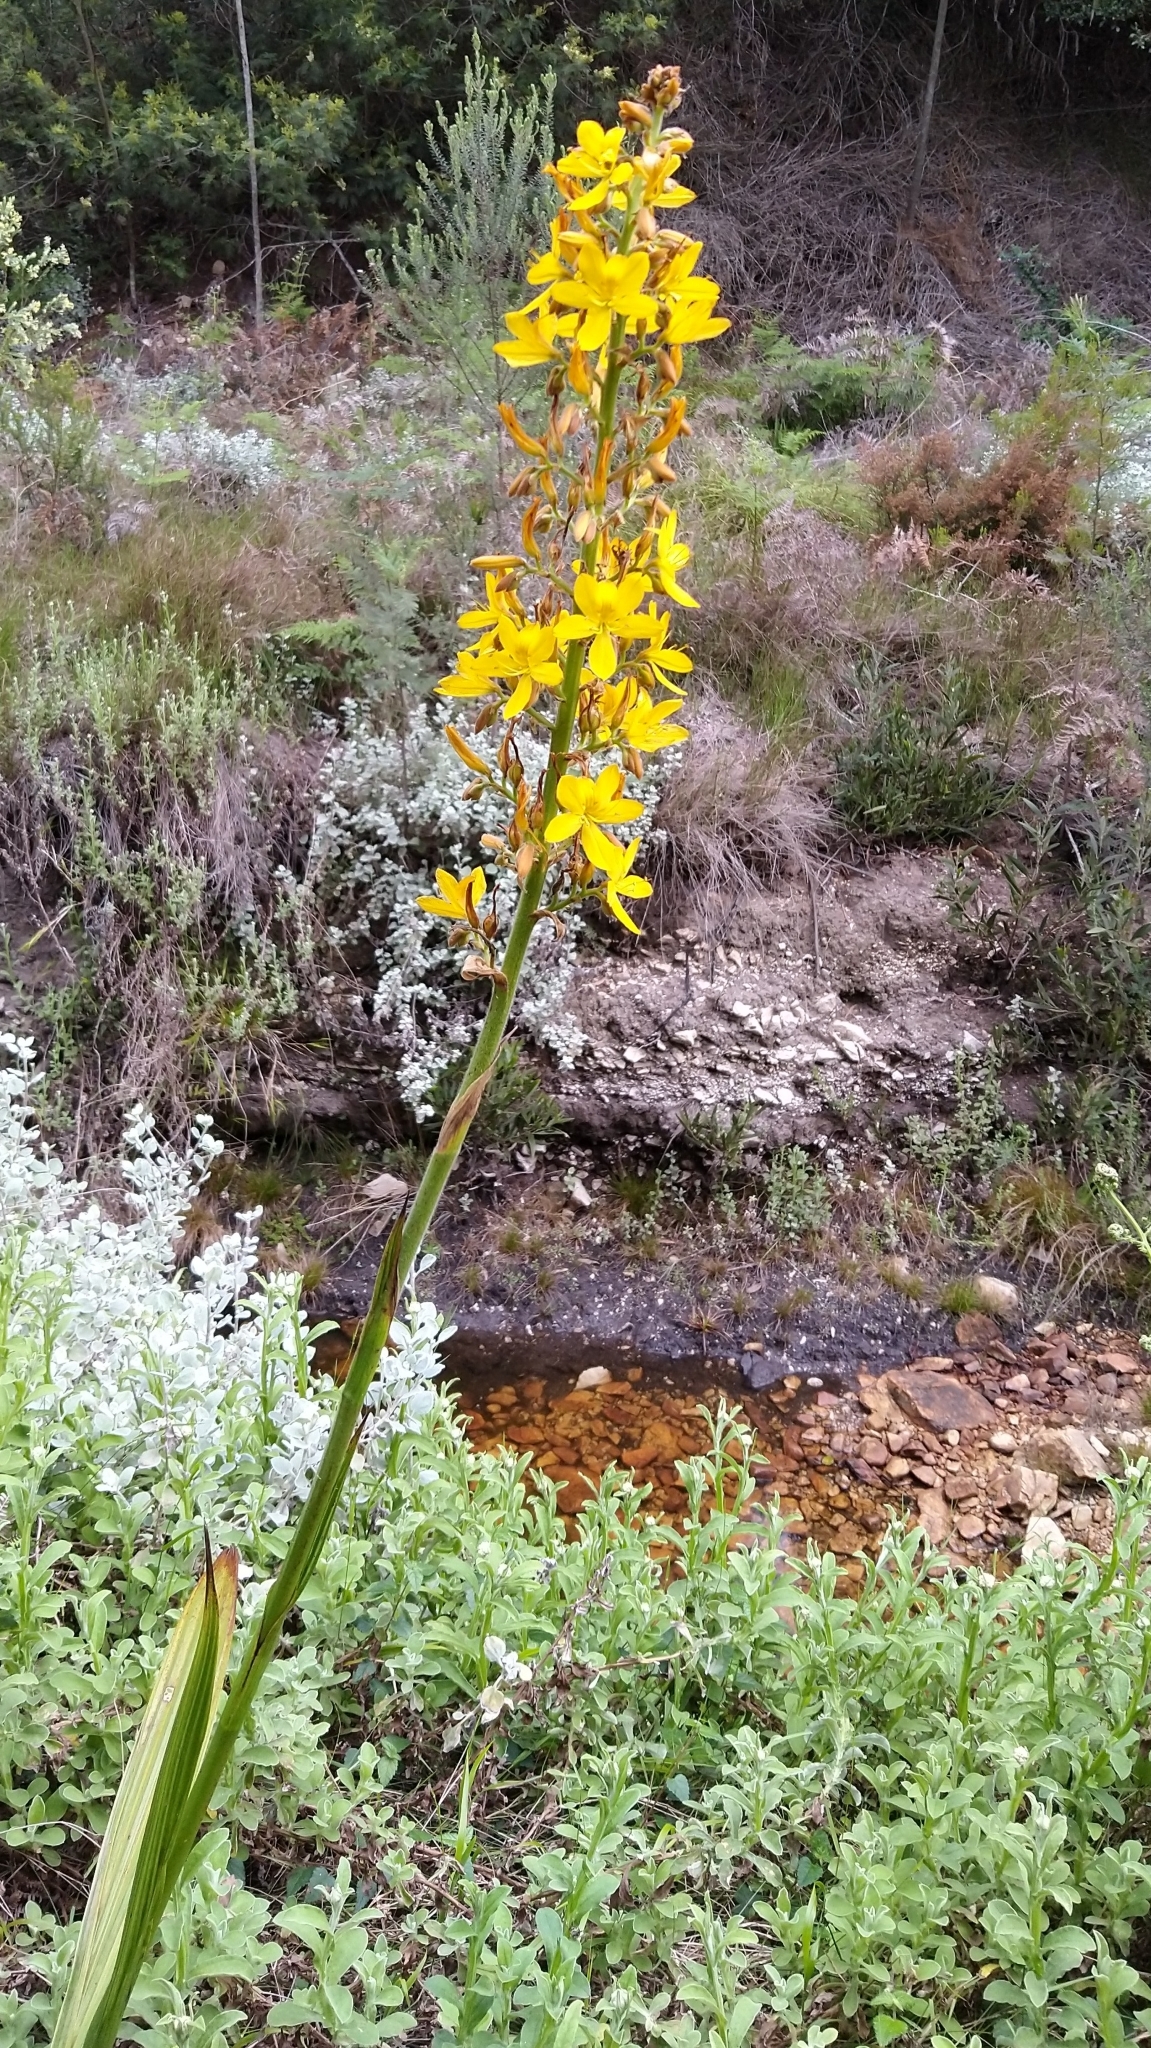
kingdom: Plantae
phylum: Tracheophyta
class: Liliopsida
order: Commelinales
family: Haemodoraceae
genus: Wachendorfia
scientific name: Wachendorfia thyrsiflora
